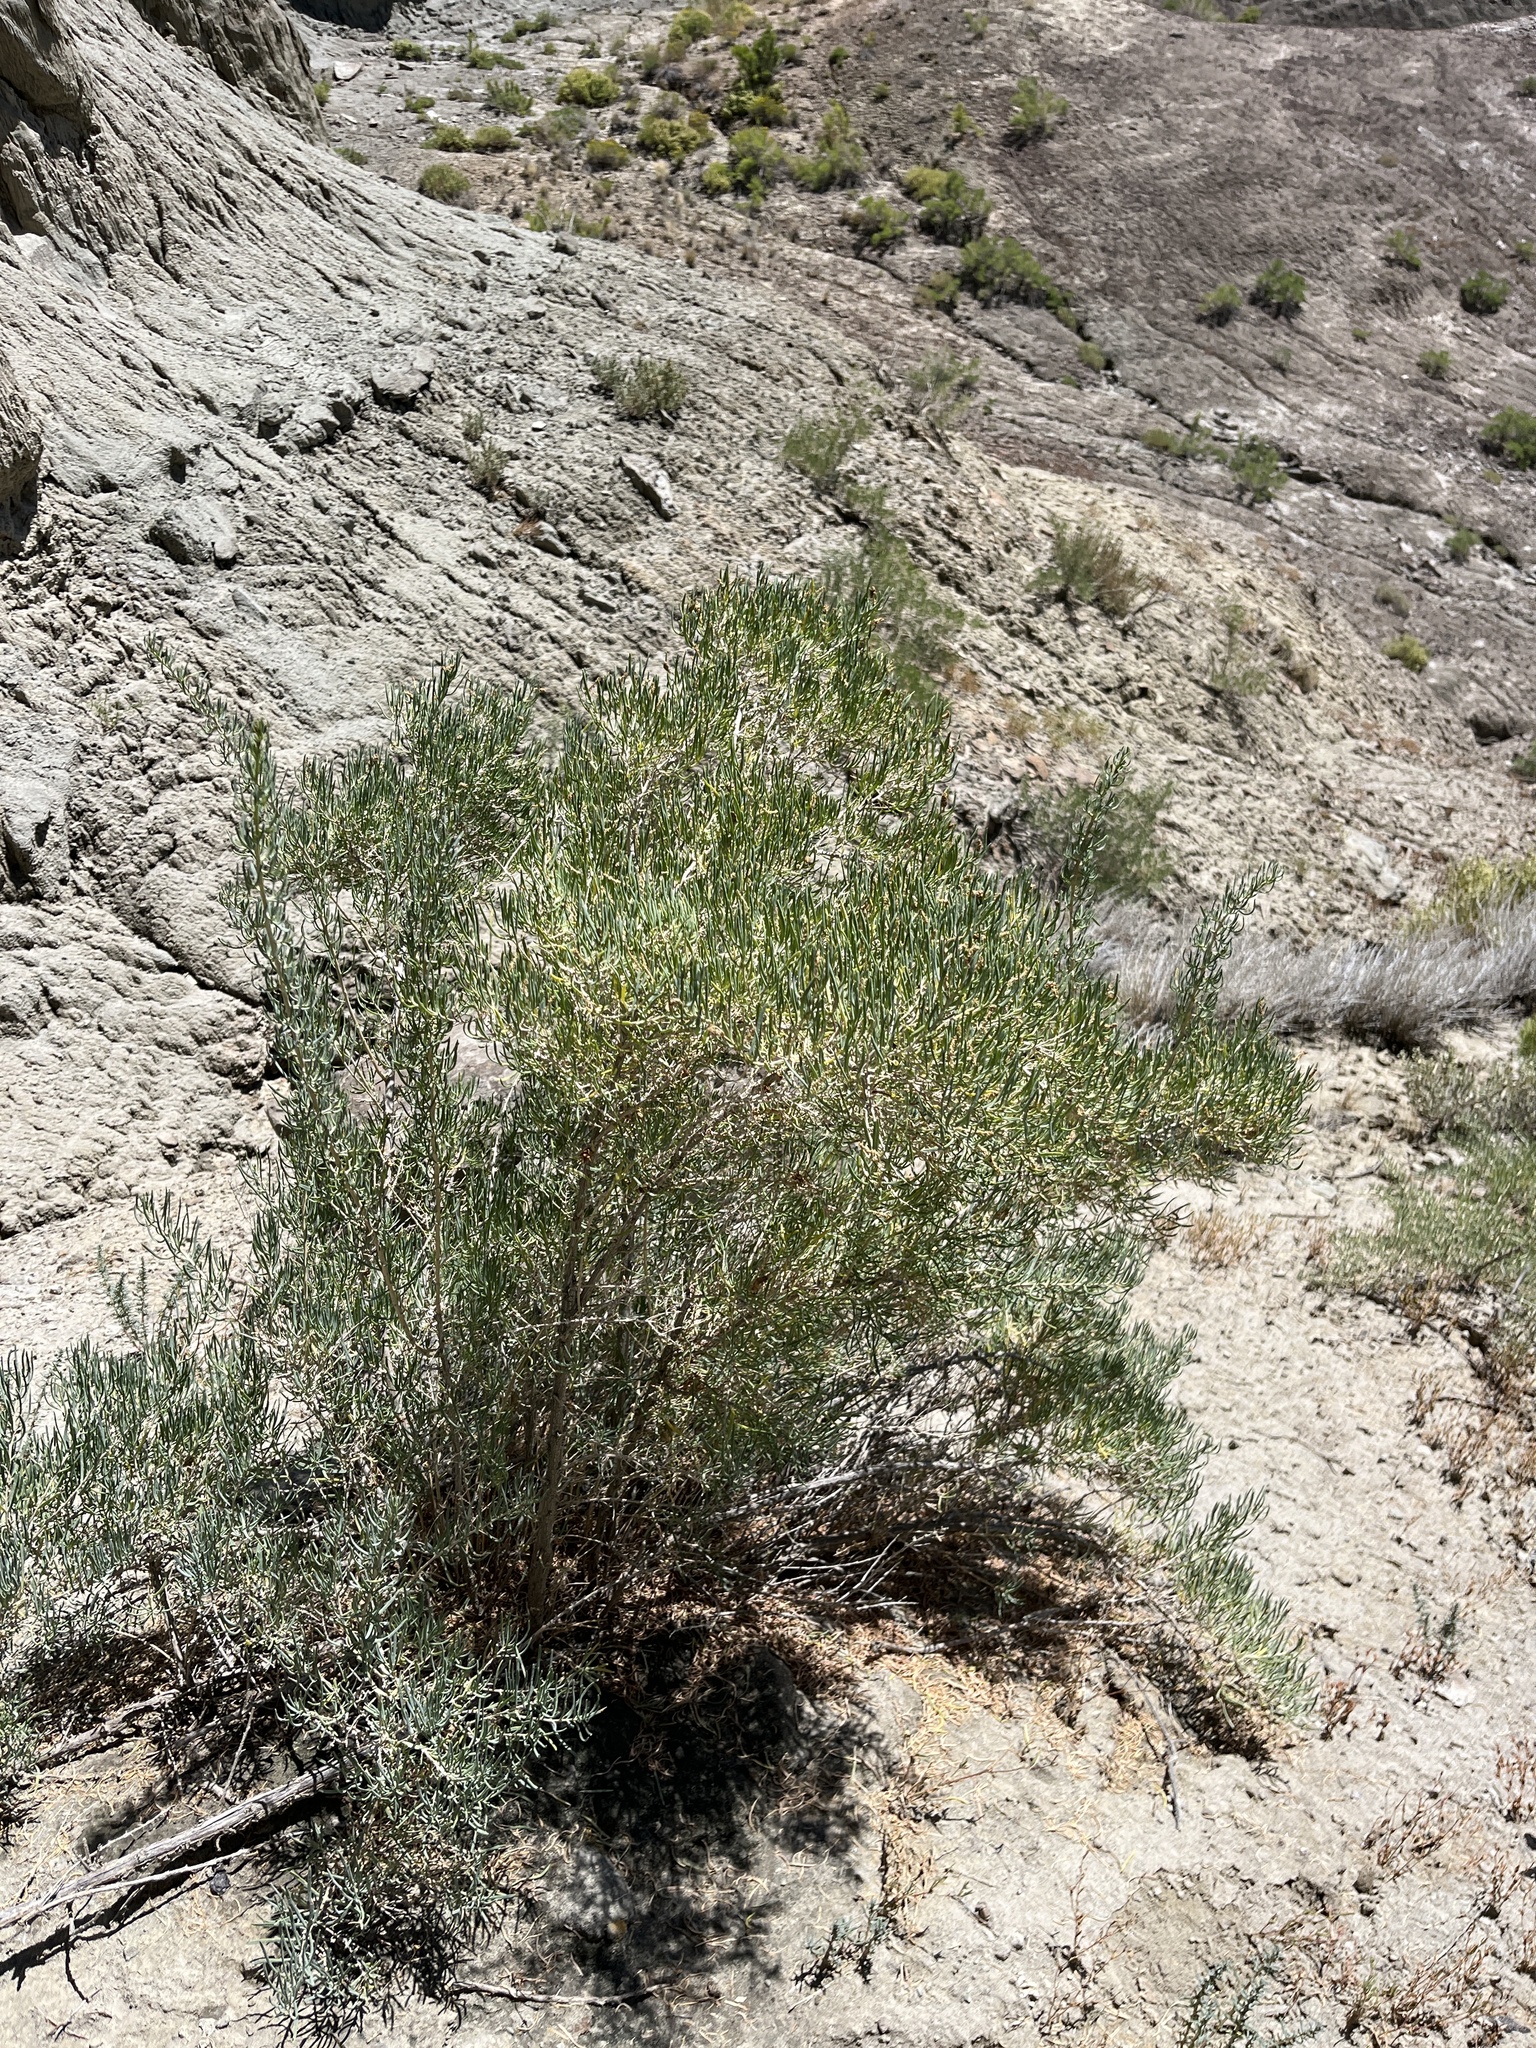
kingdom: Plantae
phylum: Tracheophyta
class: Magnoliopsida
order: Caryophyllales
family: Sarcobataceae
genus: Sarcobatus
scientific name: Sarcobatus vermiculatus
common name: Greasewood
